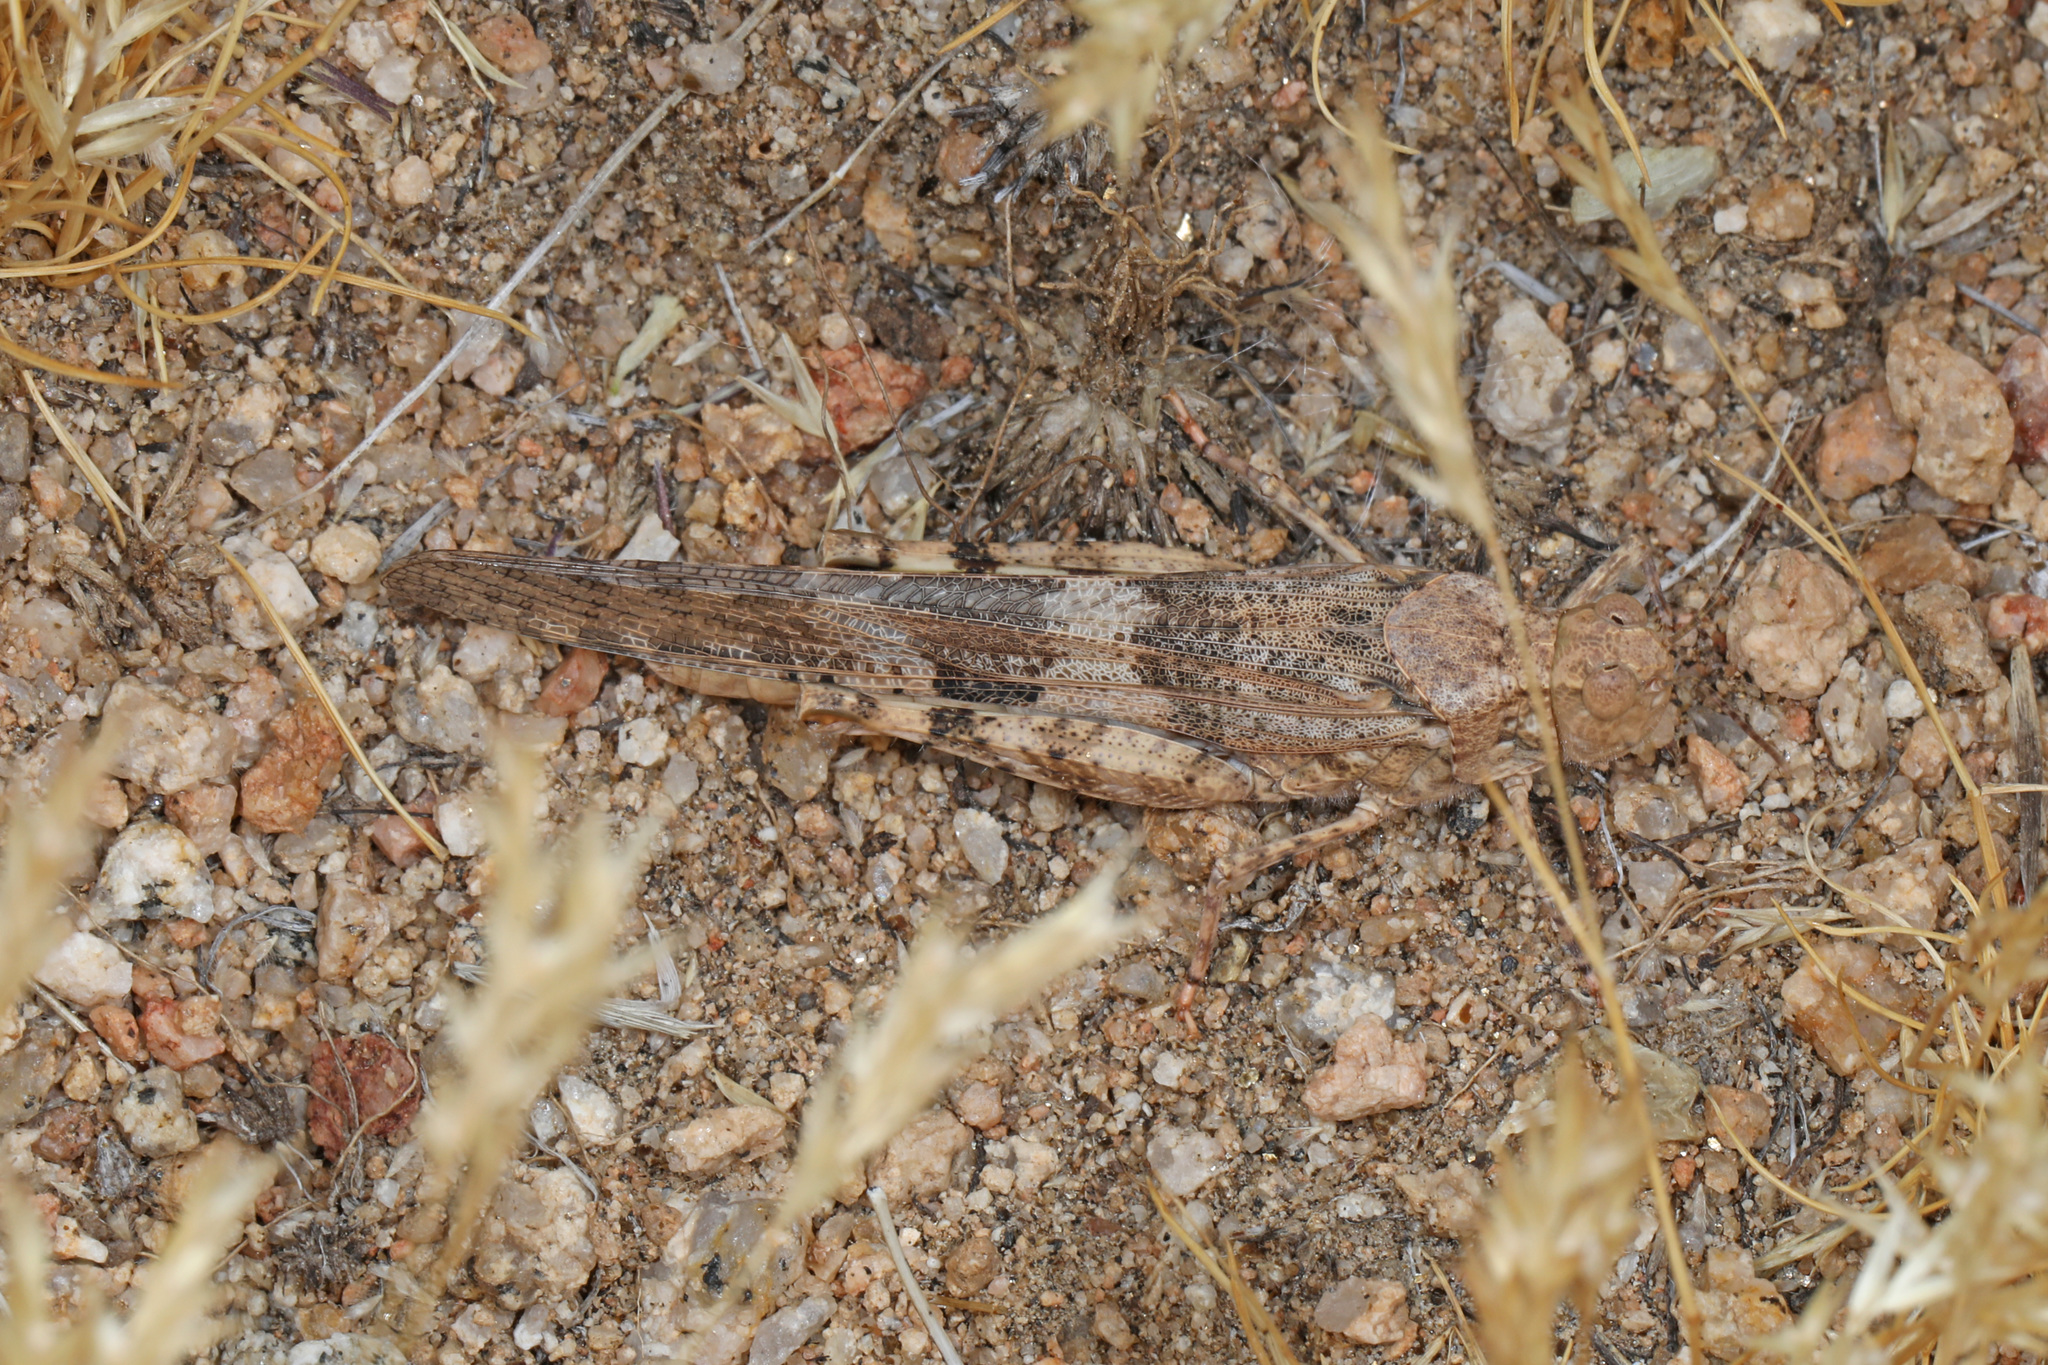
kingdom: Animalia
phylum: Arthropoda
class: Insecta
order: Orthoptera
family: Acrididae
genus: Trimerotropis
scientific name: Trimerotropis pallidipennis
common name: Pallid-winged grasshopper
